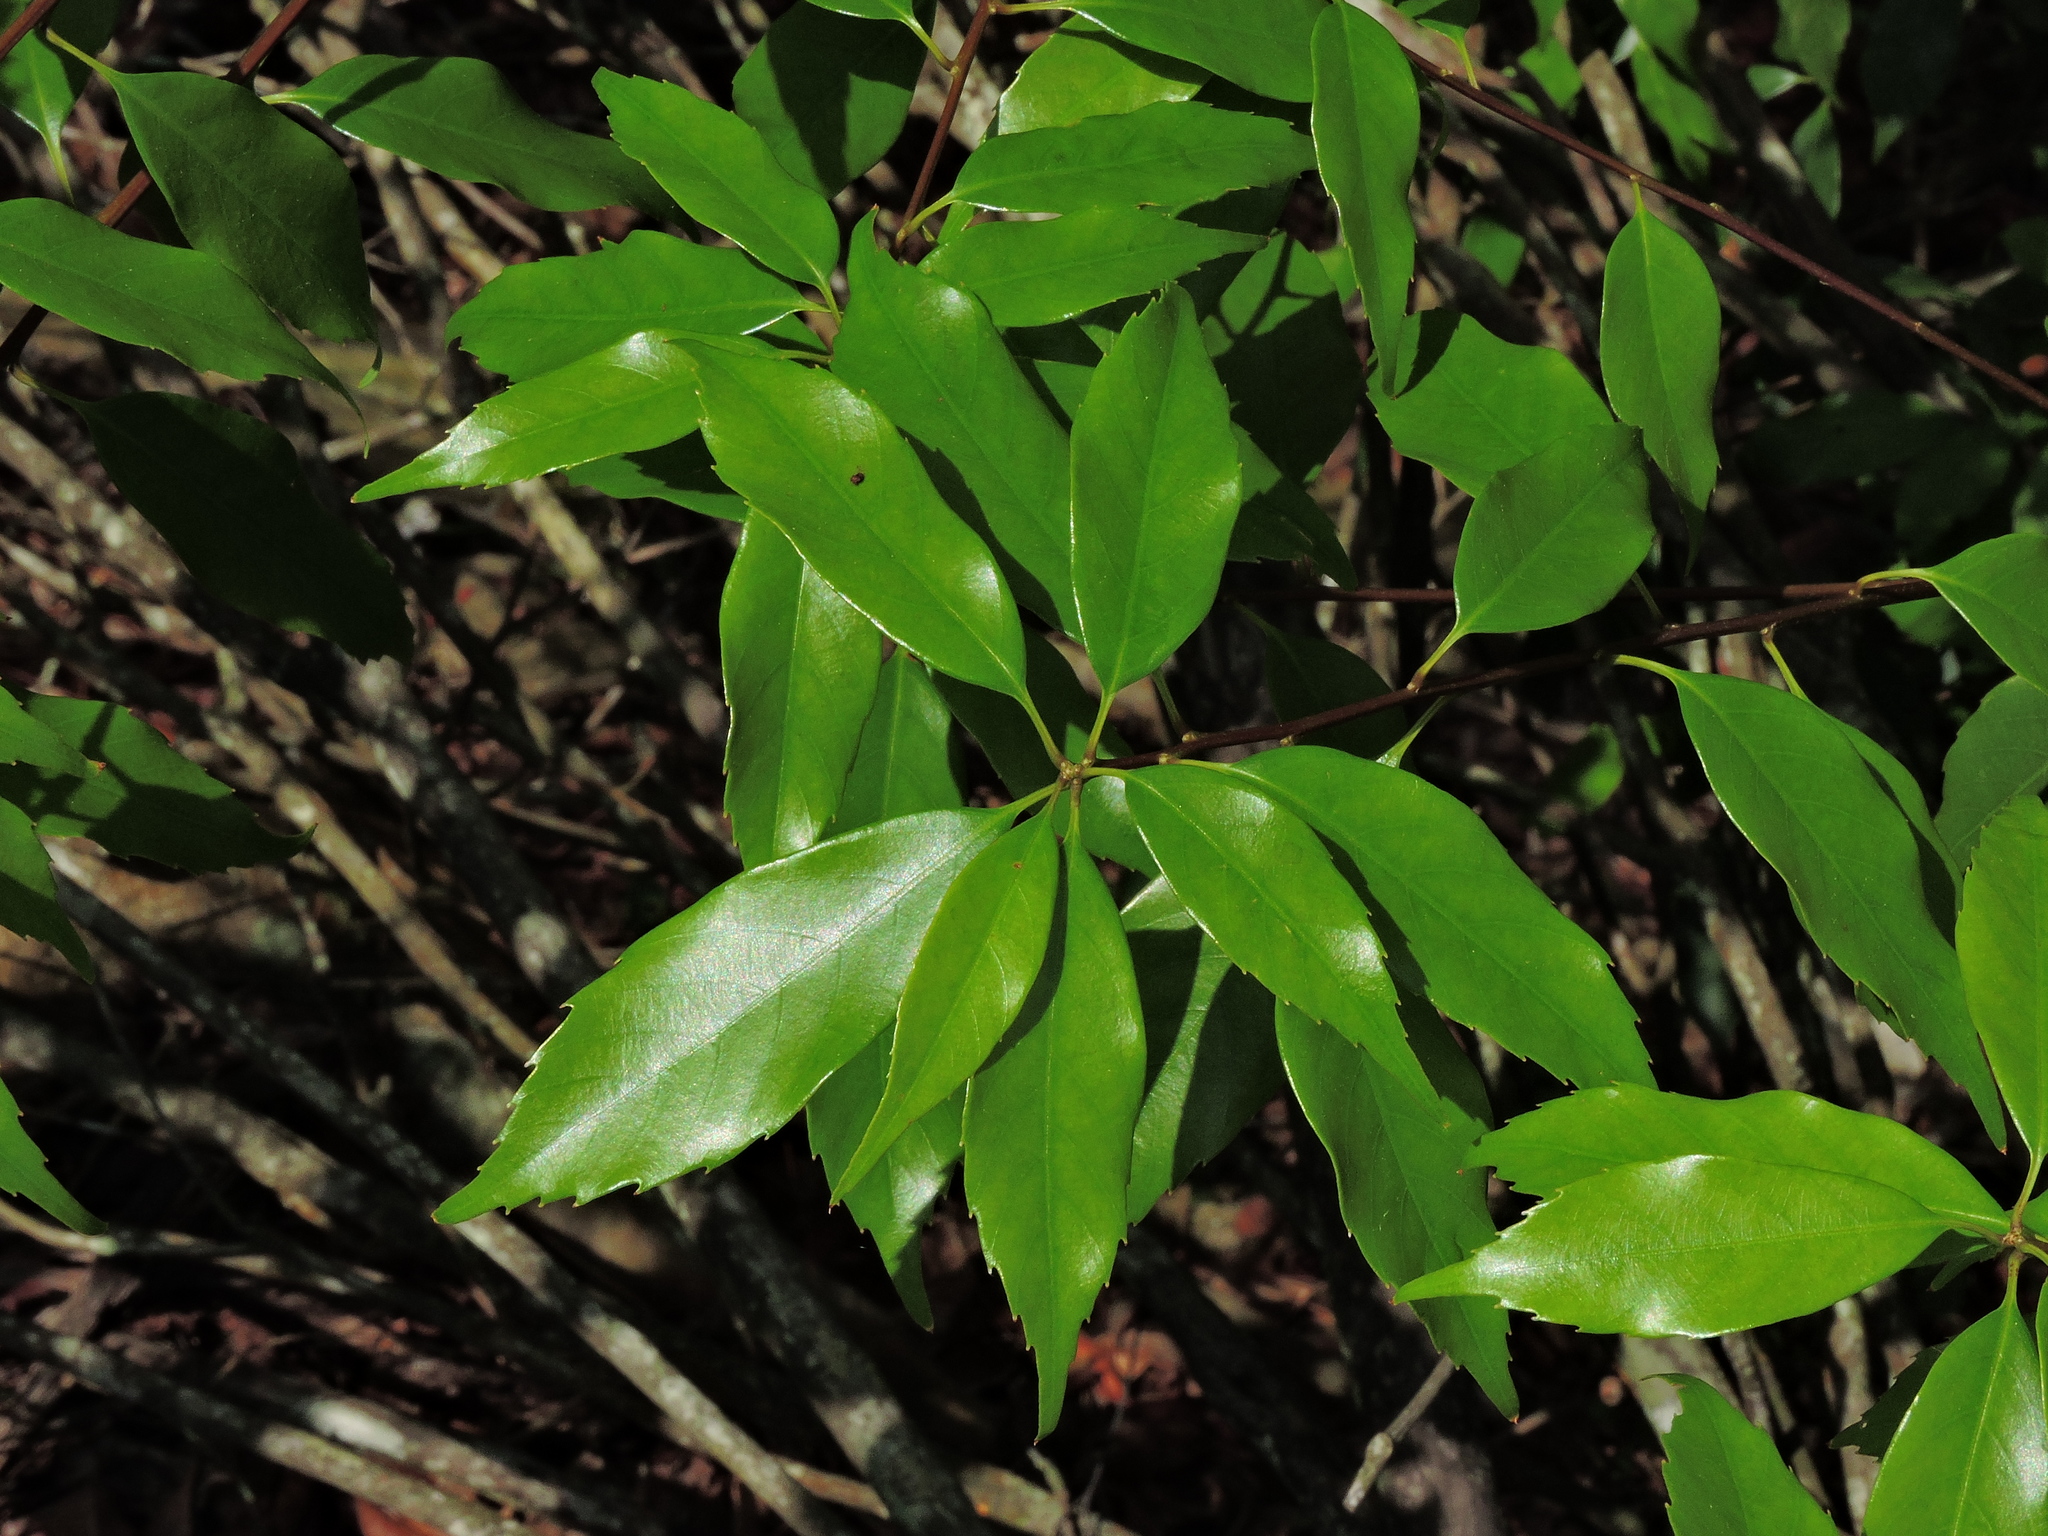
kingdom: Plantae
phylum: Tracheophyta
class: Magnoliopsida
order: Fagales
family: Fagaceae
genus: Quercus
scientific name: Quercus longinux
